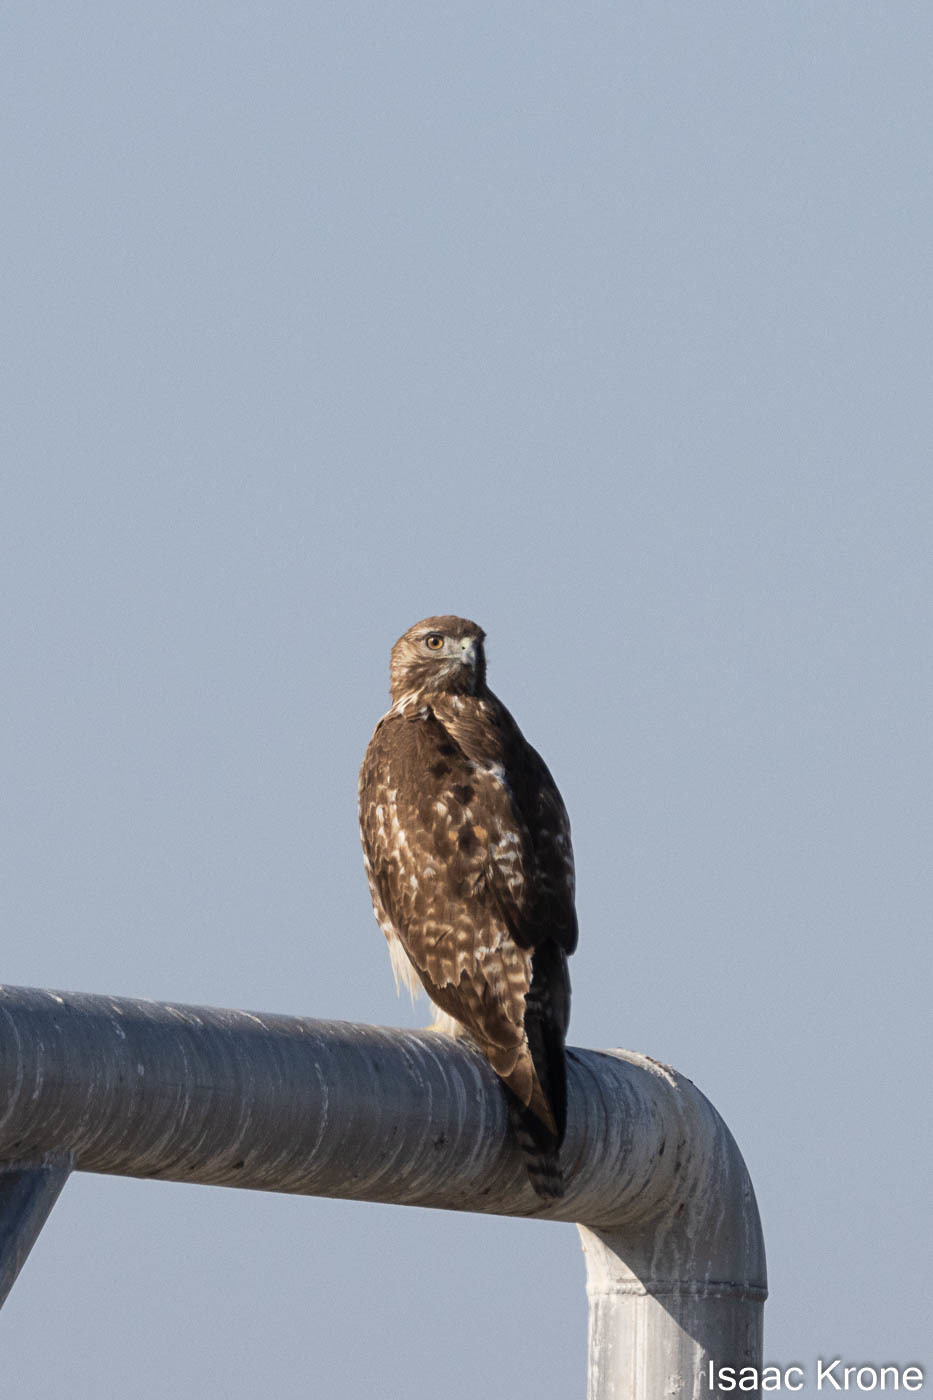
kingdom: Animalia
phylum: Chordata
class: Aves
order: Accipitriformes
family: Accipitridae
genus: Buteo
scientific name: Buteo jamaicensis
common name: Red-tailed hawk
